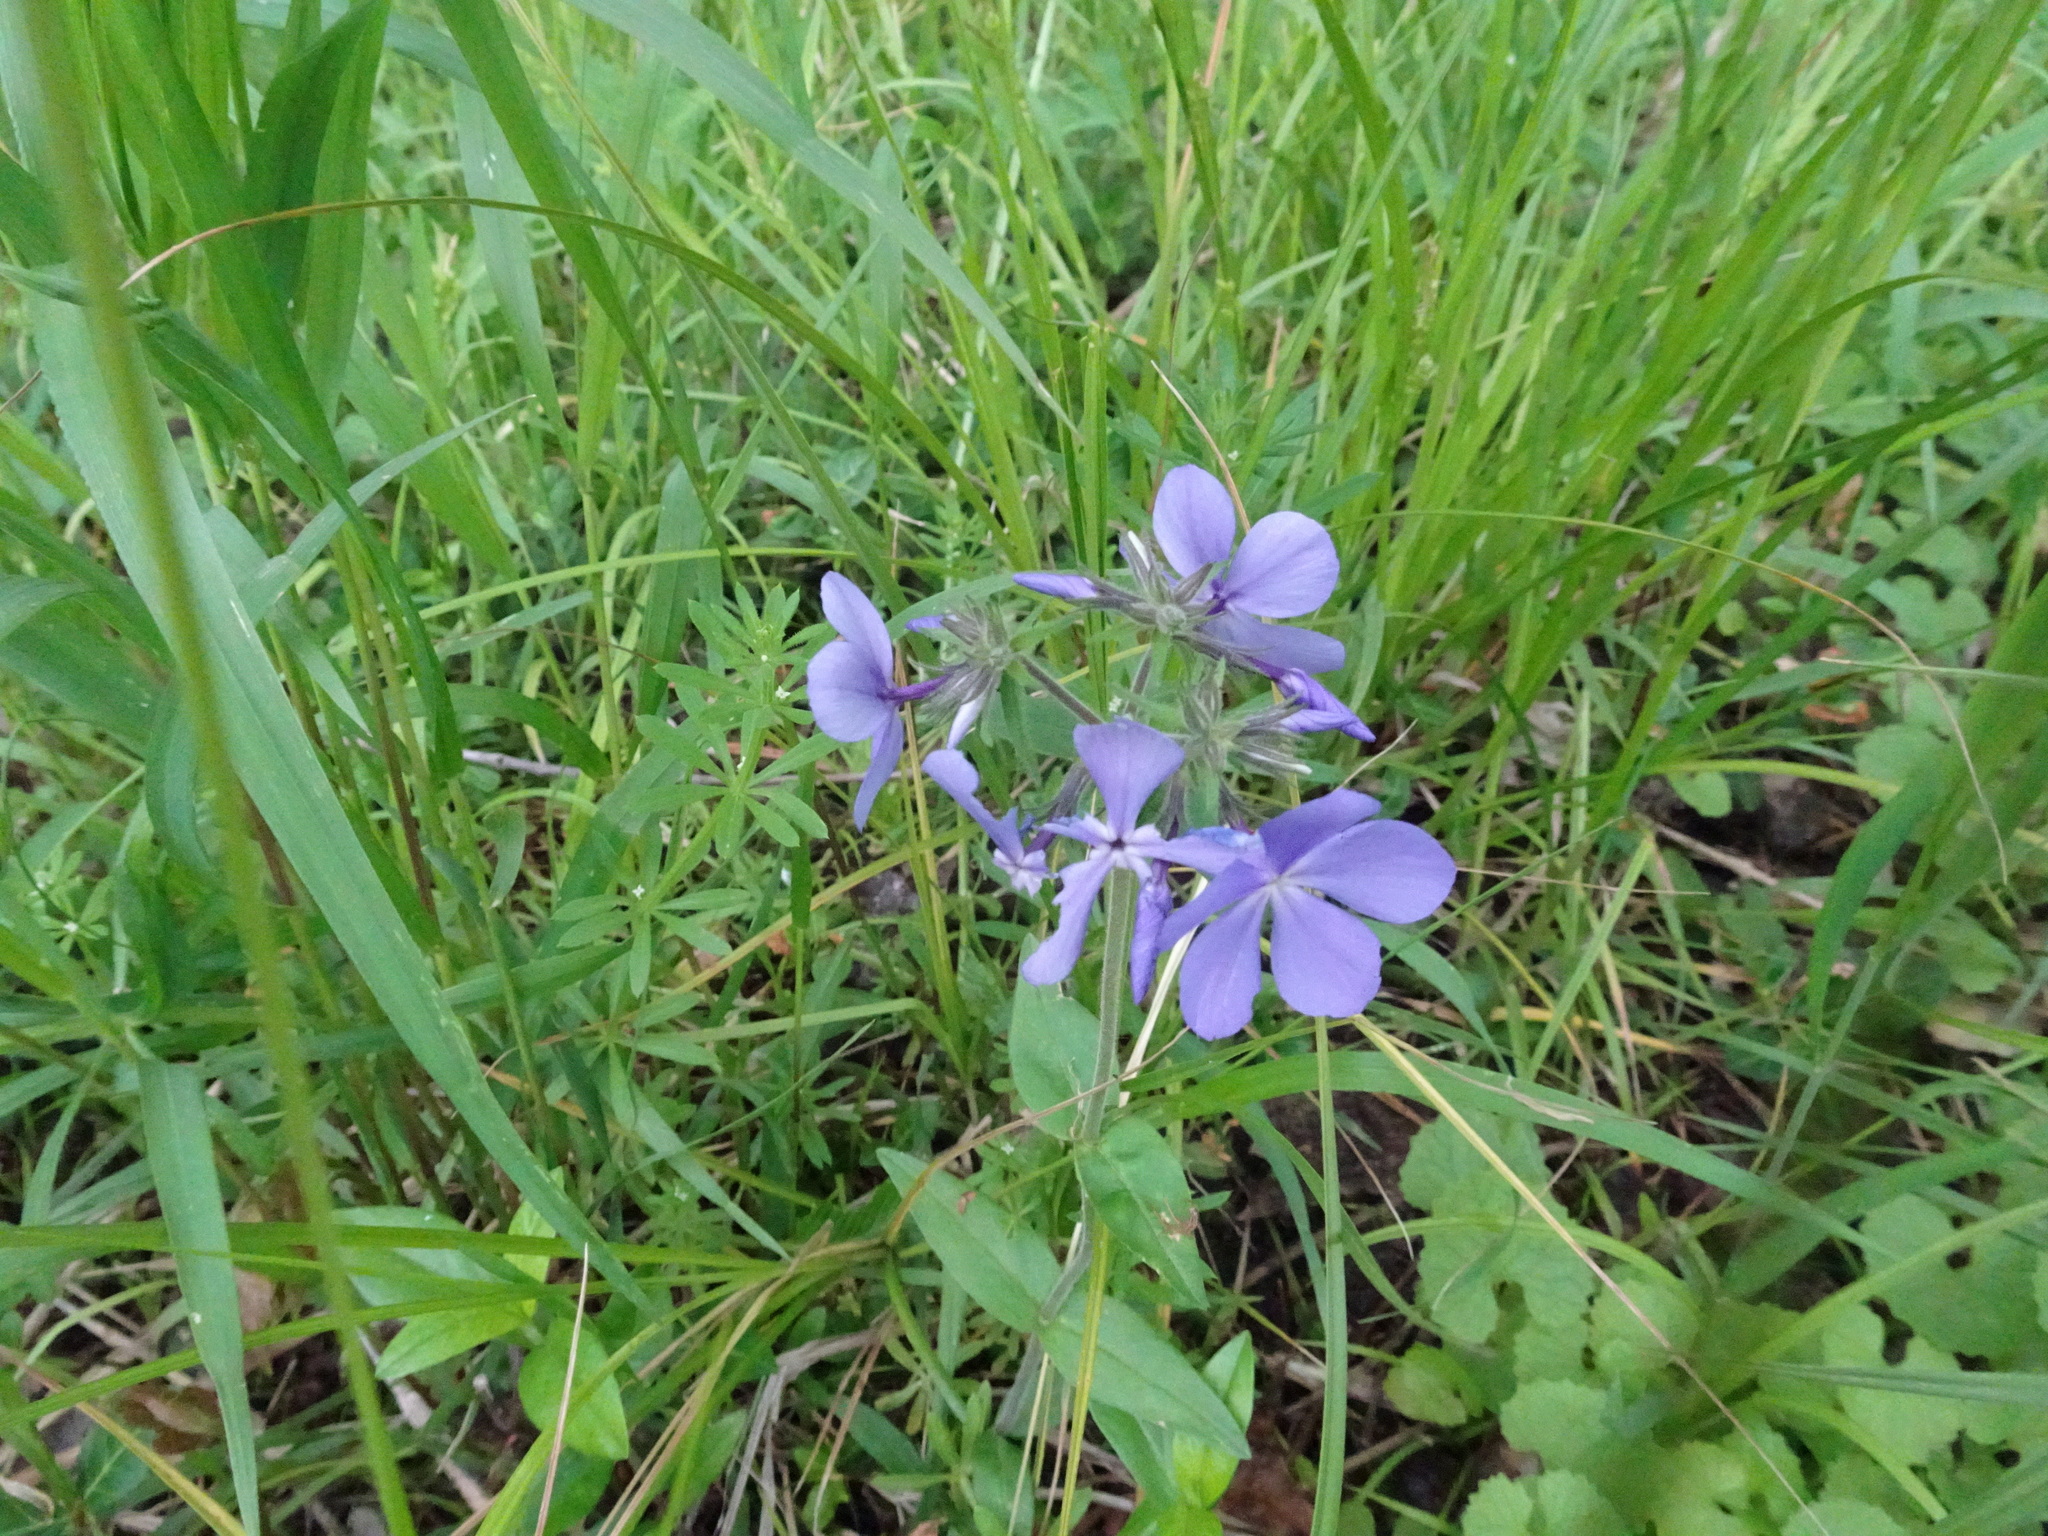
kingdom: Plantae
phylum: Tracheophyta
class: Magnoliopsida
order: Ericales
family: Polemoniaceae
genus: Phlox
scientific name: Phlox divaricata
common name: Blue phlox
